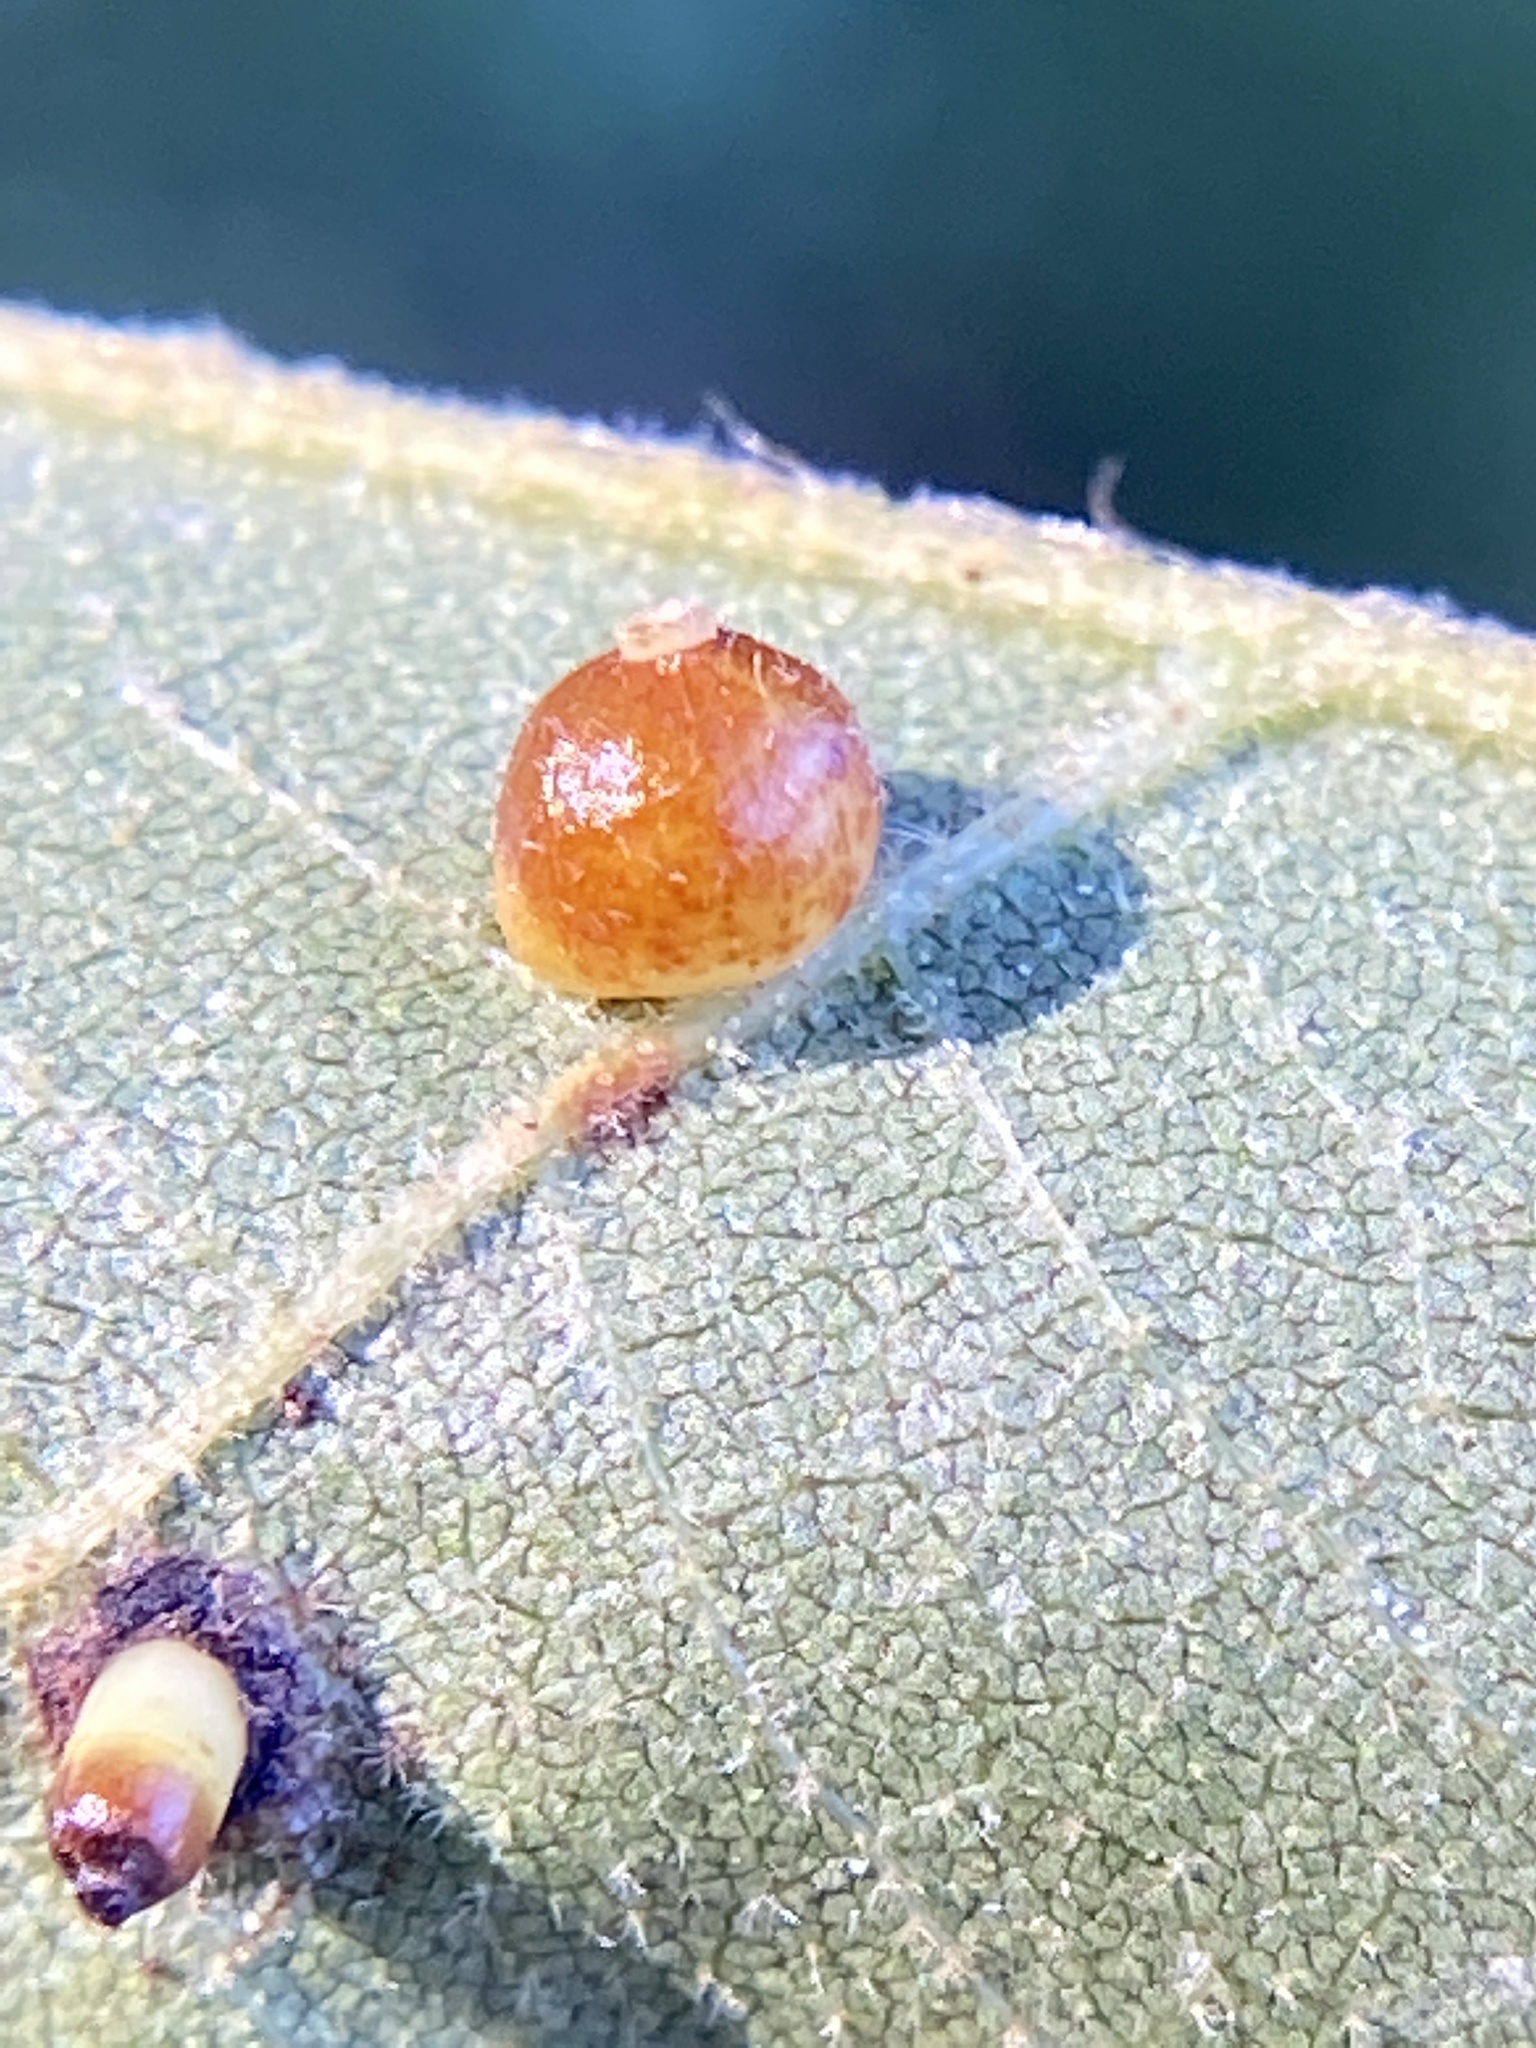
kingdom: Animalia
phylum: Arthropoda
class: Insecta
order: Diptera
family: Cecidomyiidae
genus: Caryomyia
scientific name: Caryomyia spiniglobus
